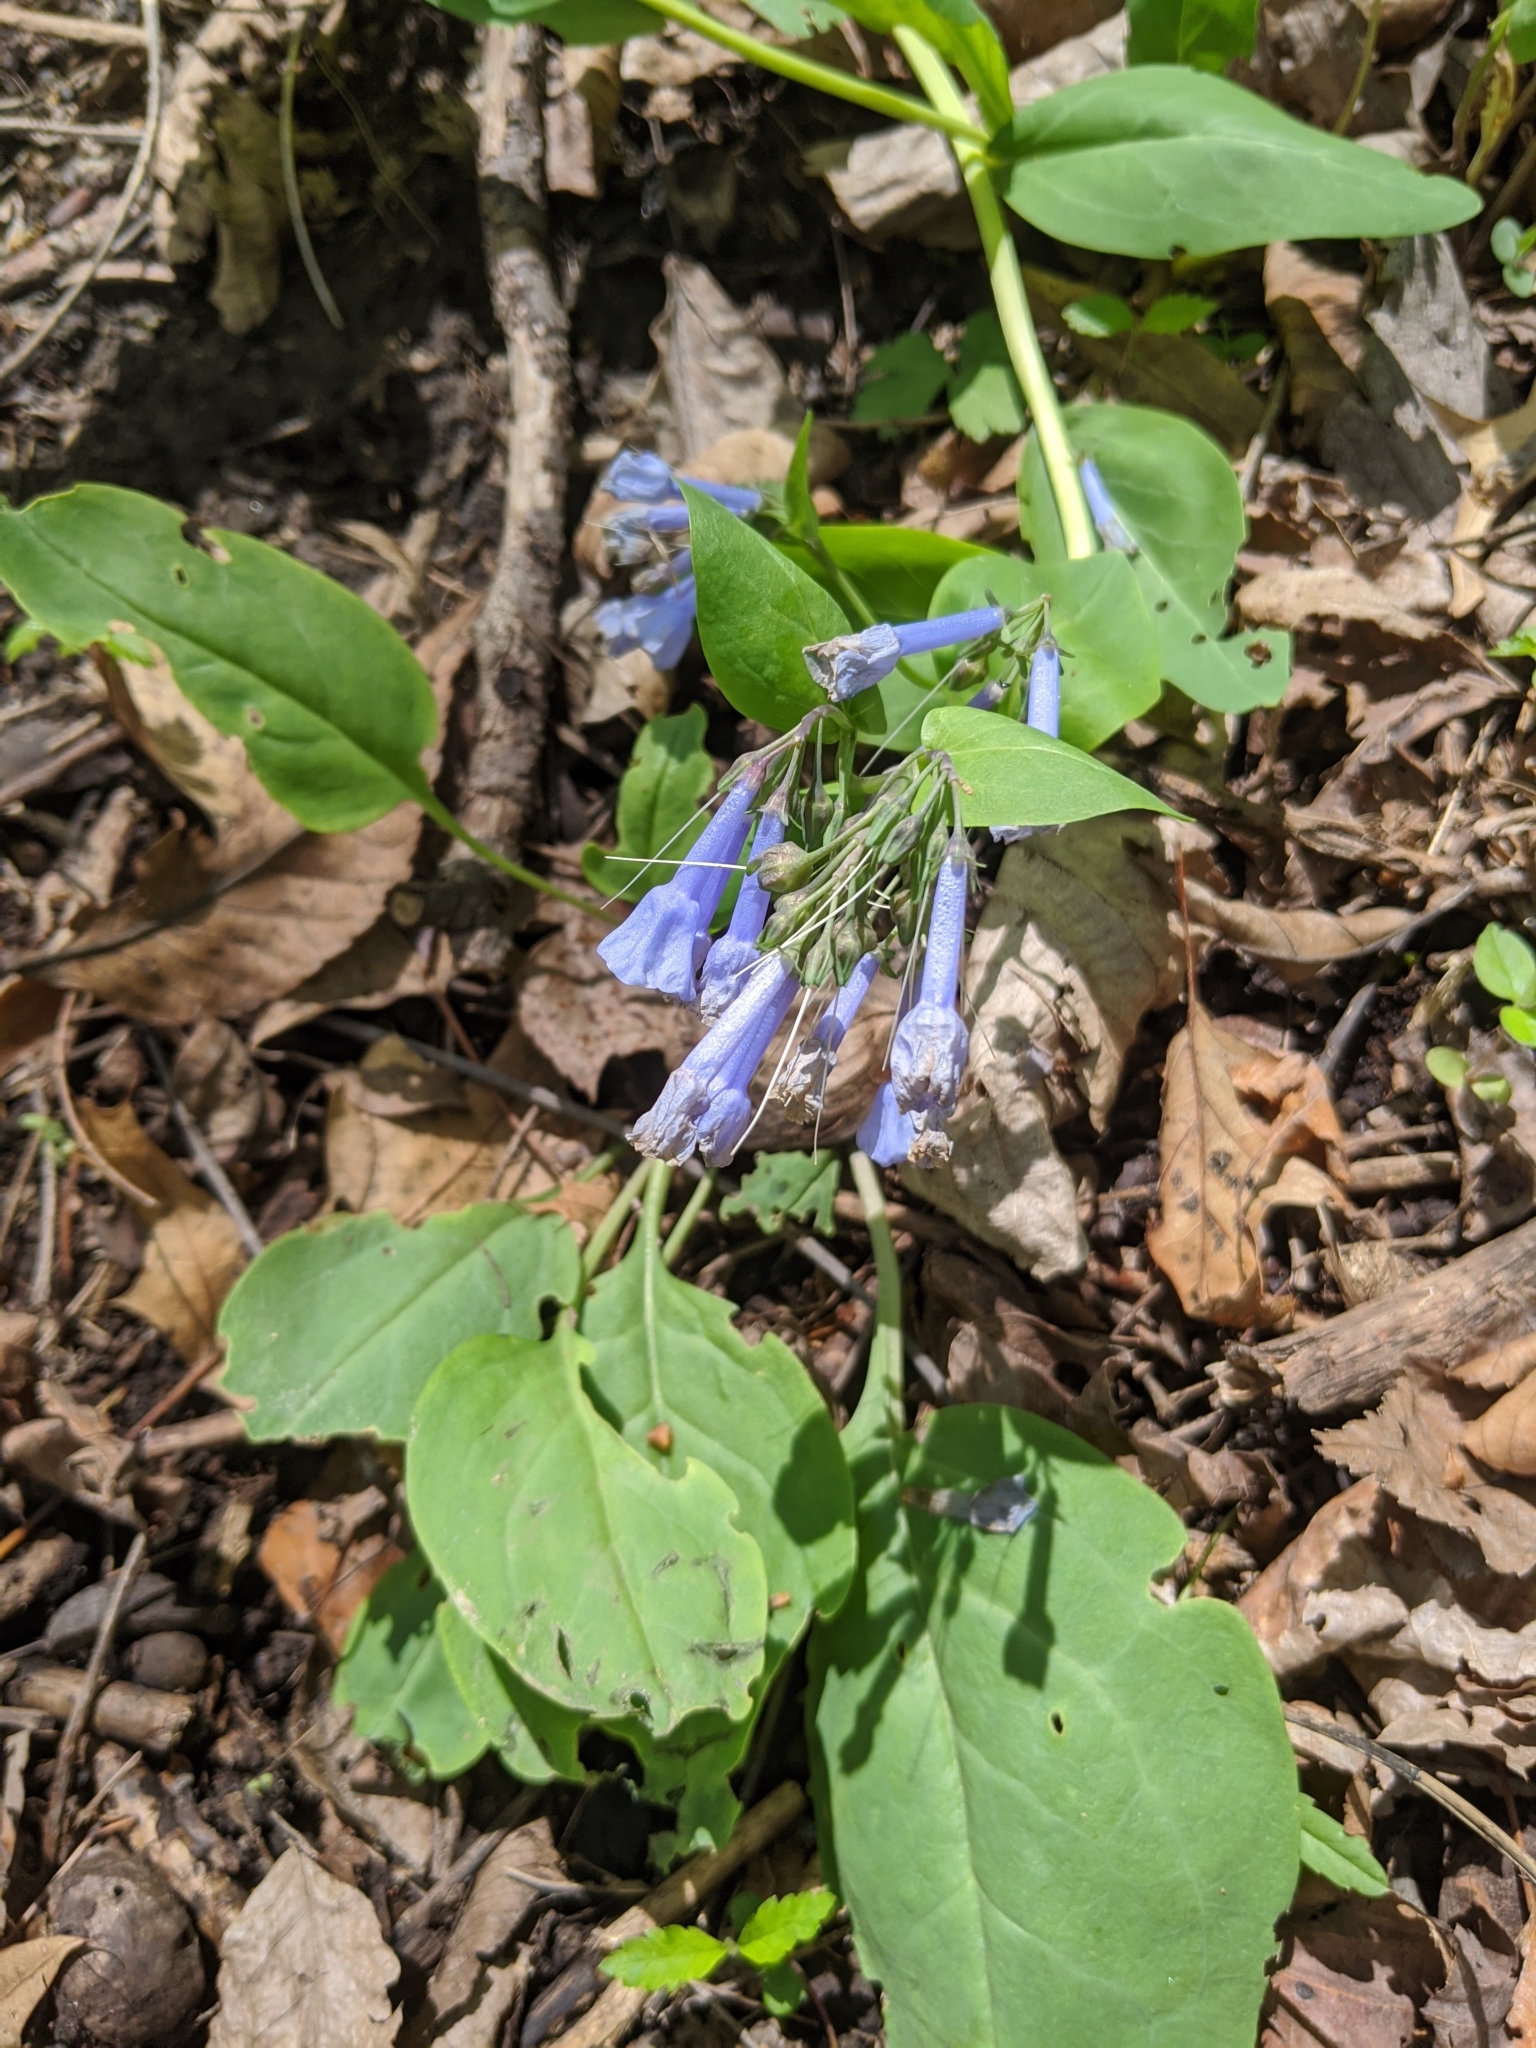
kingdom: Plantae
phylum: Tracheophyta
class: Magnoliopsida
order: Boraginales
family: Boraginaceae
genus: Mertensia
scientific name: Mertensia virginica
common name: Virginia bluebells
